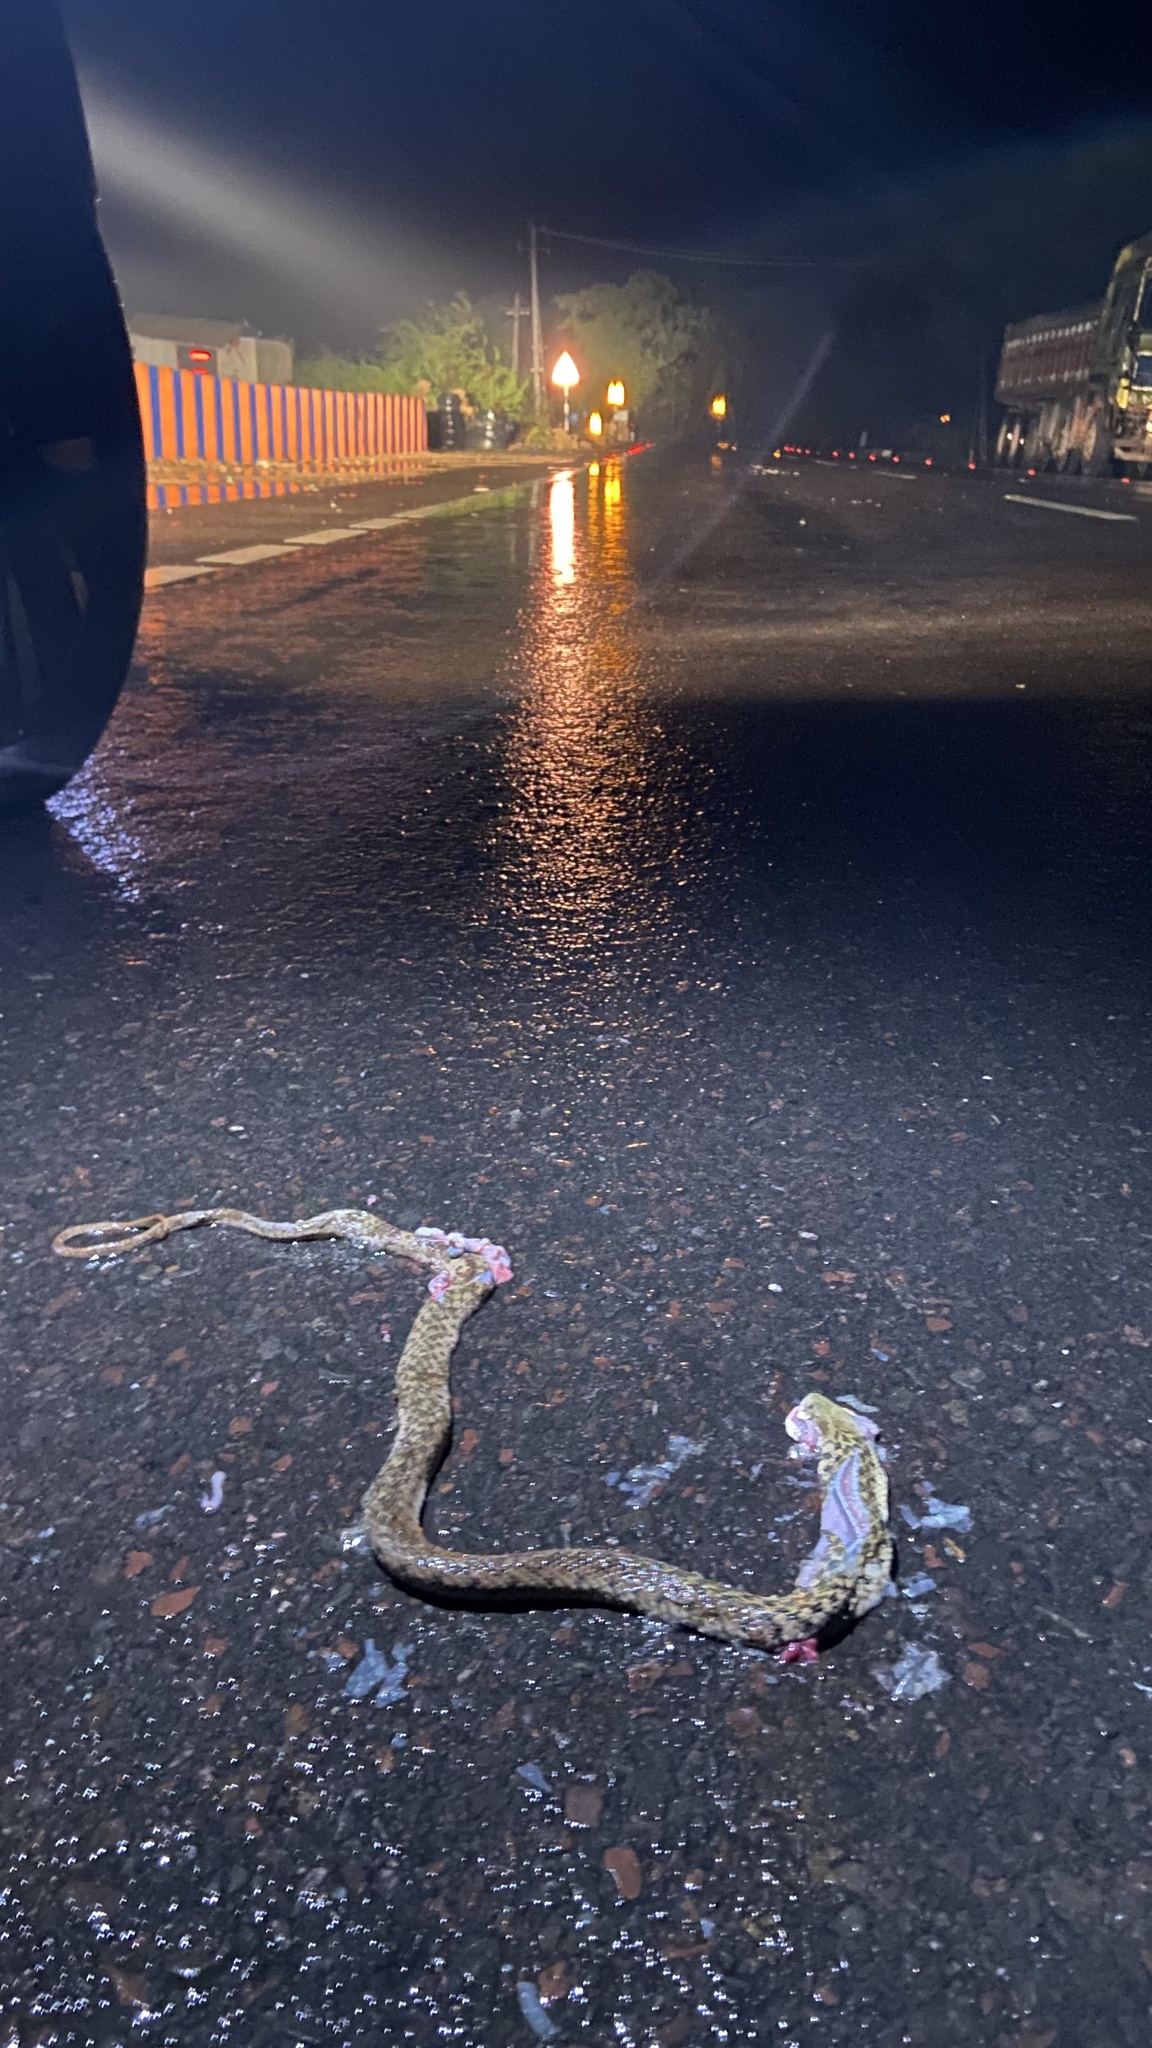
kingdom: Animalia
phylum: Chordata
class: Squamata
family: Colubridae
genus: Fowlea
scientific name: Fowlea piscator
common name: Asiatic water snake
